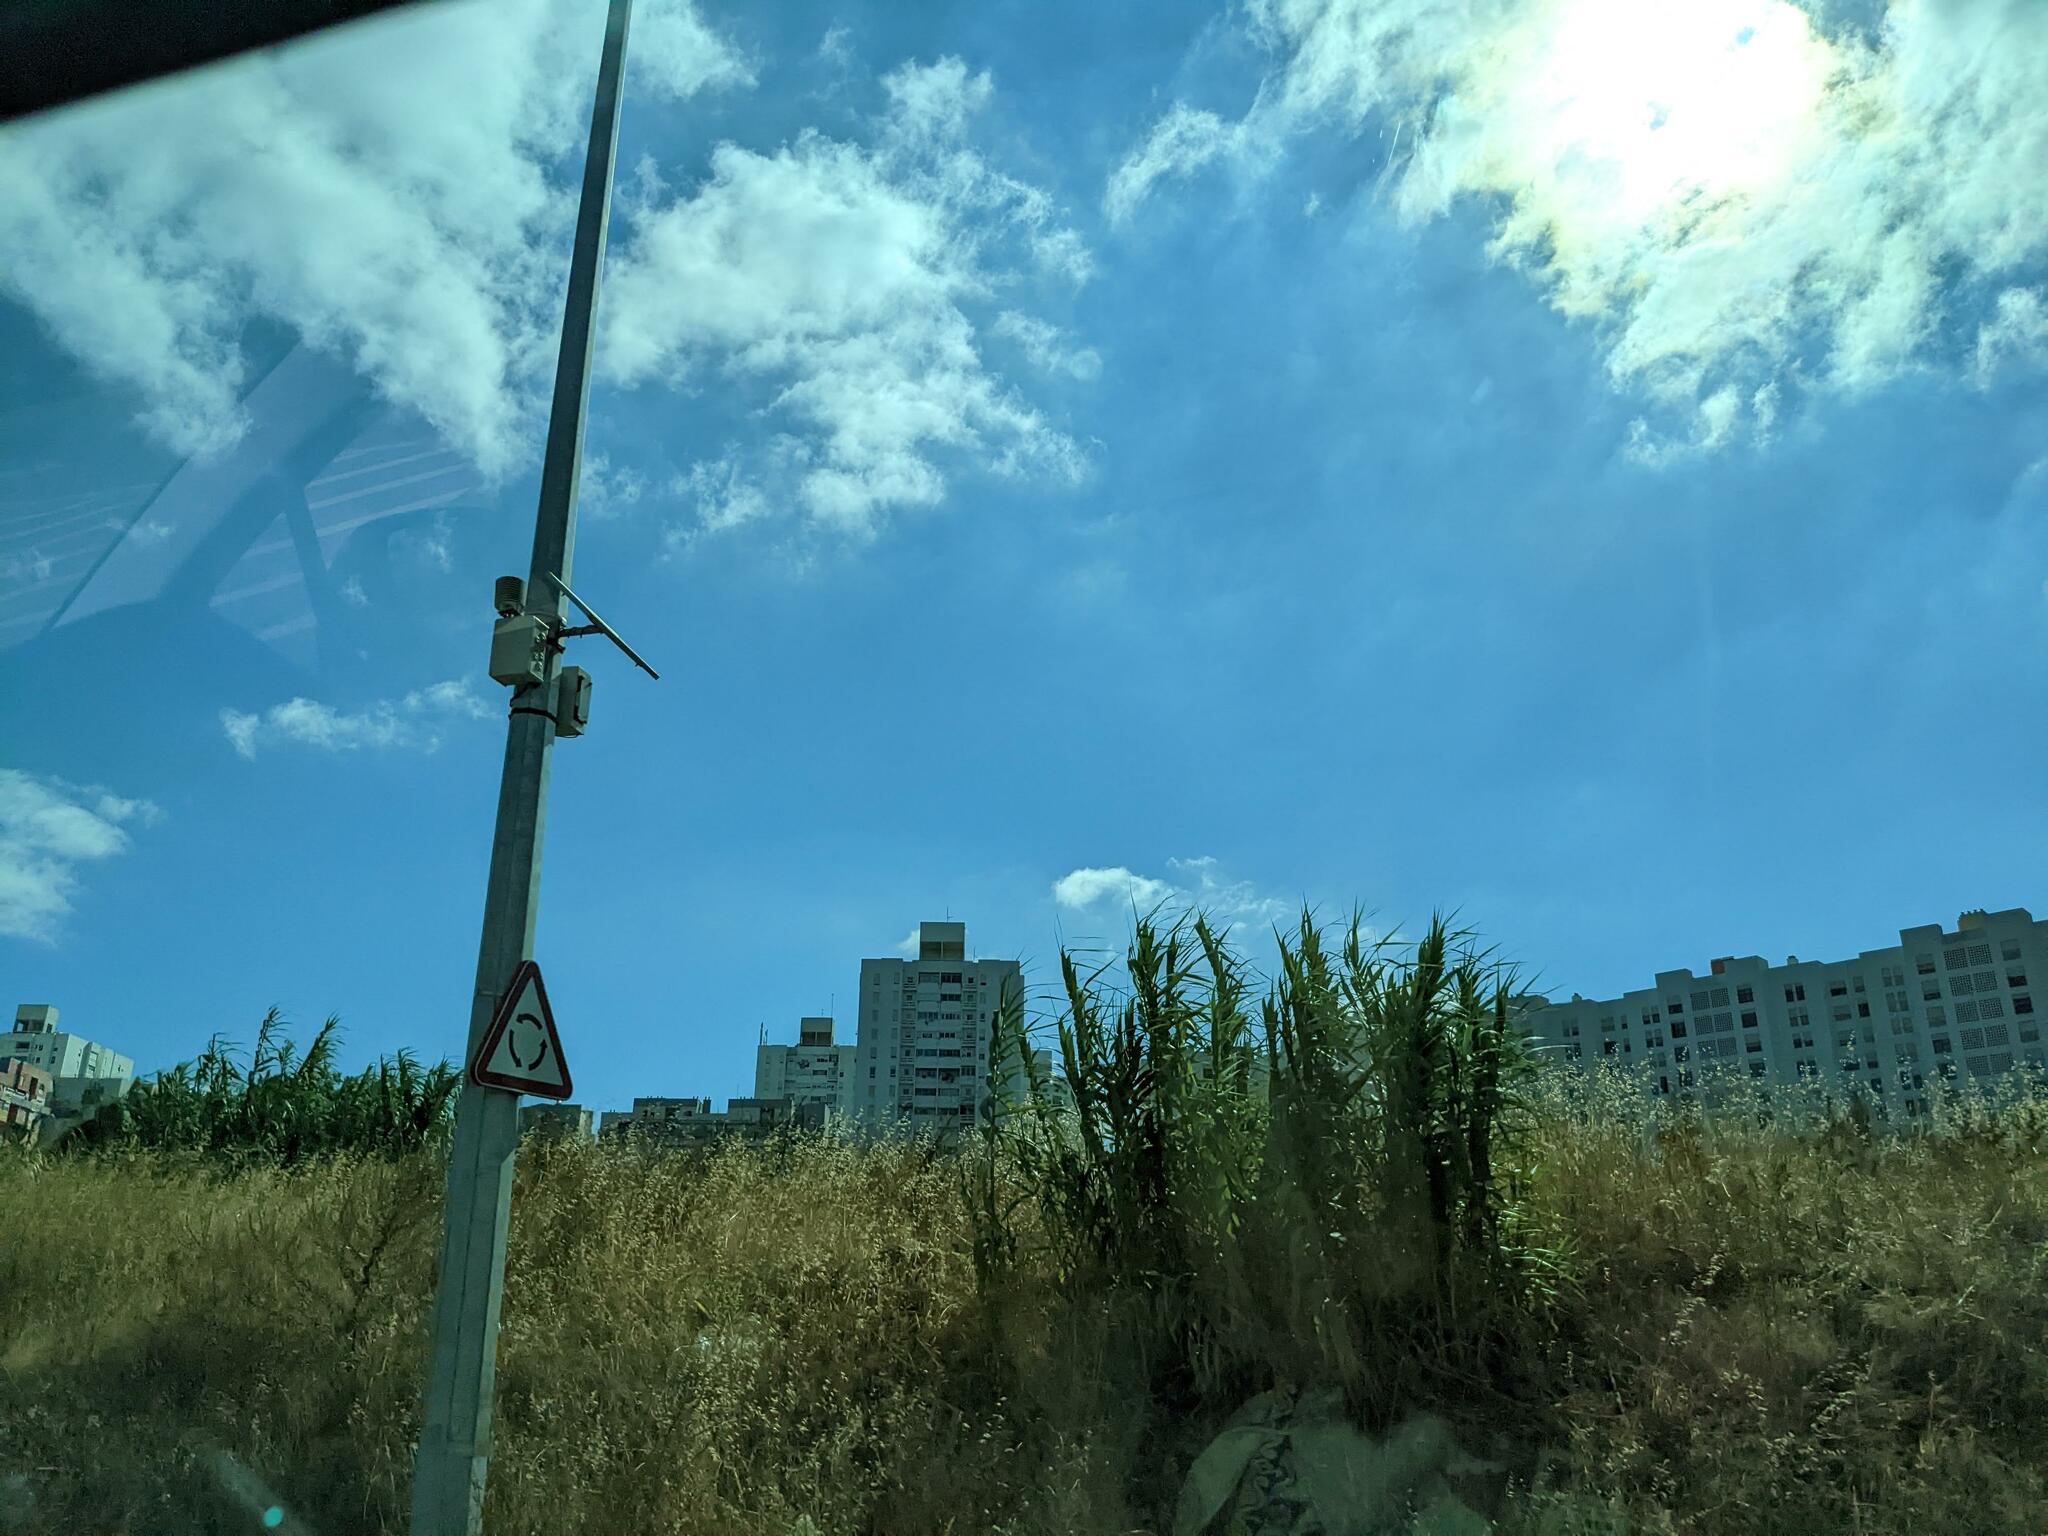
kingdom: Plantae
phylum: Tracheophyta
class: Liliopsida
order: Poales
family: Poaceae
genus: Arundo
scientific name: Arundo donax
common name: Giant reed
